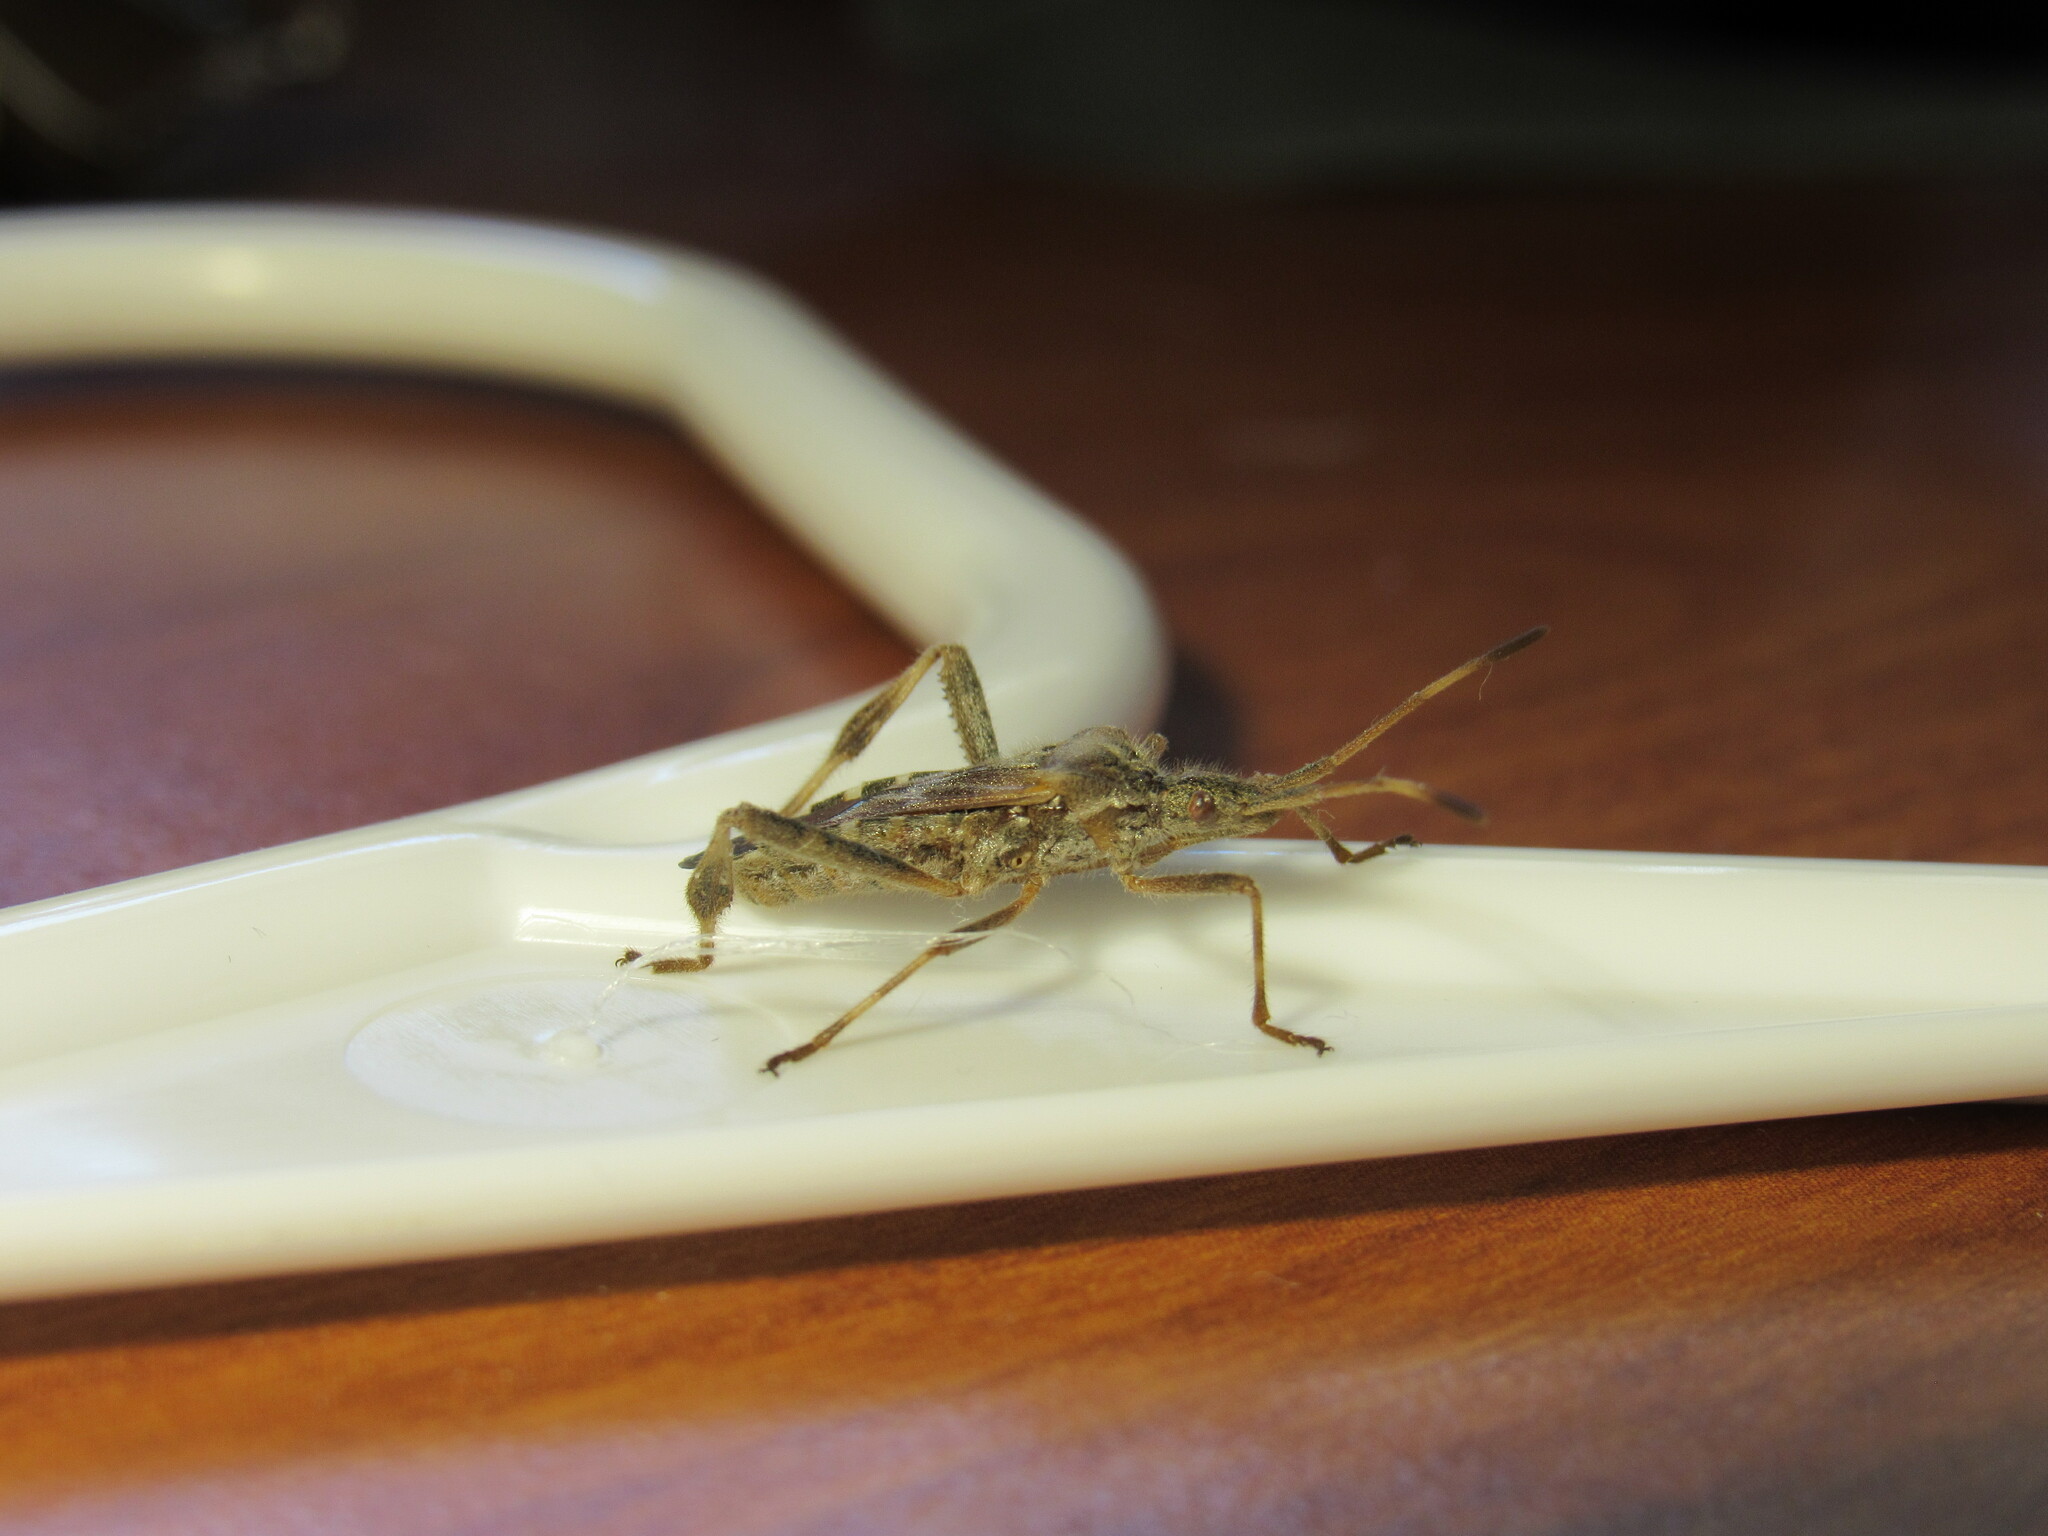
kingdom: Animalia
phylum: Arthropoda
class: Insecta
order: Hemiptera
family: Coreidae
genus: Leptoglossus
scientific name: Leptoglossus occidentalis
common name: Western conifer-seed bug
